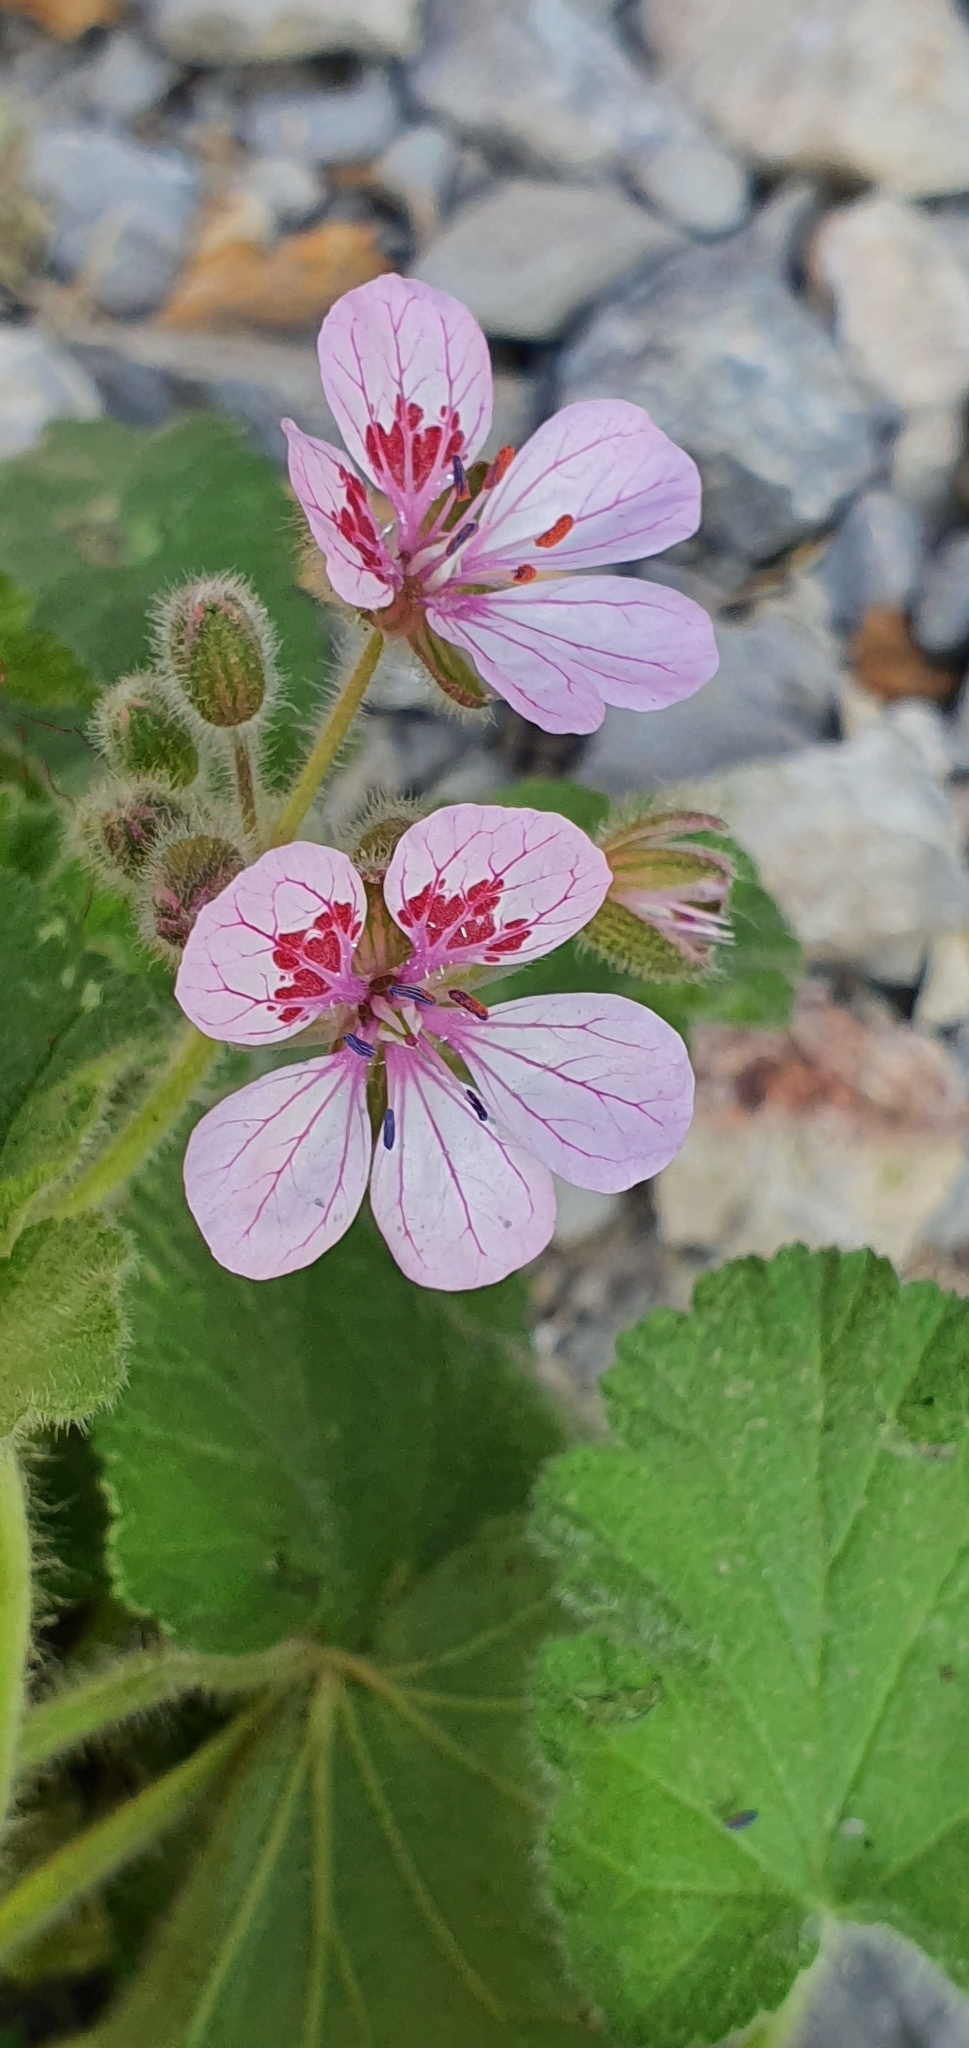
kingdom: Plantae
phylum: Tracheophyta
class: Magnoliopsida
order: Geraniales
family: Geraniaceae
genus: Erodium
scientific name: Erodium trifolium
